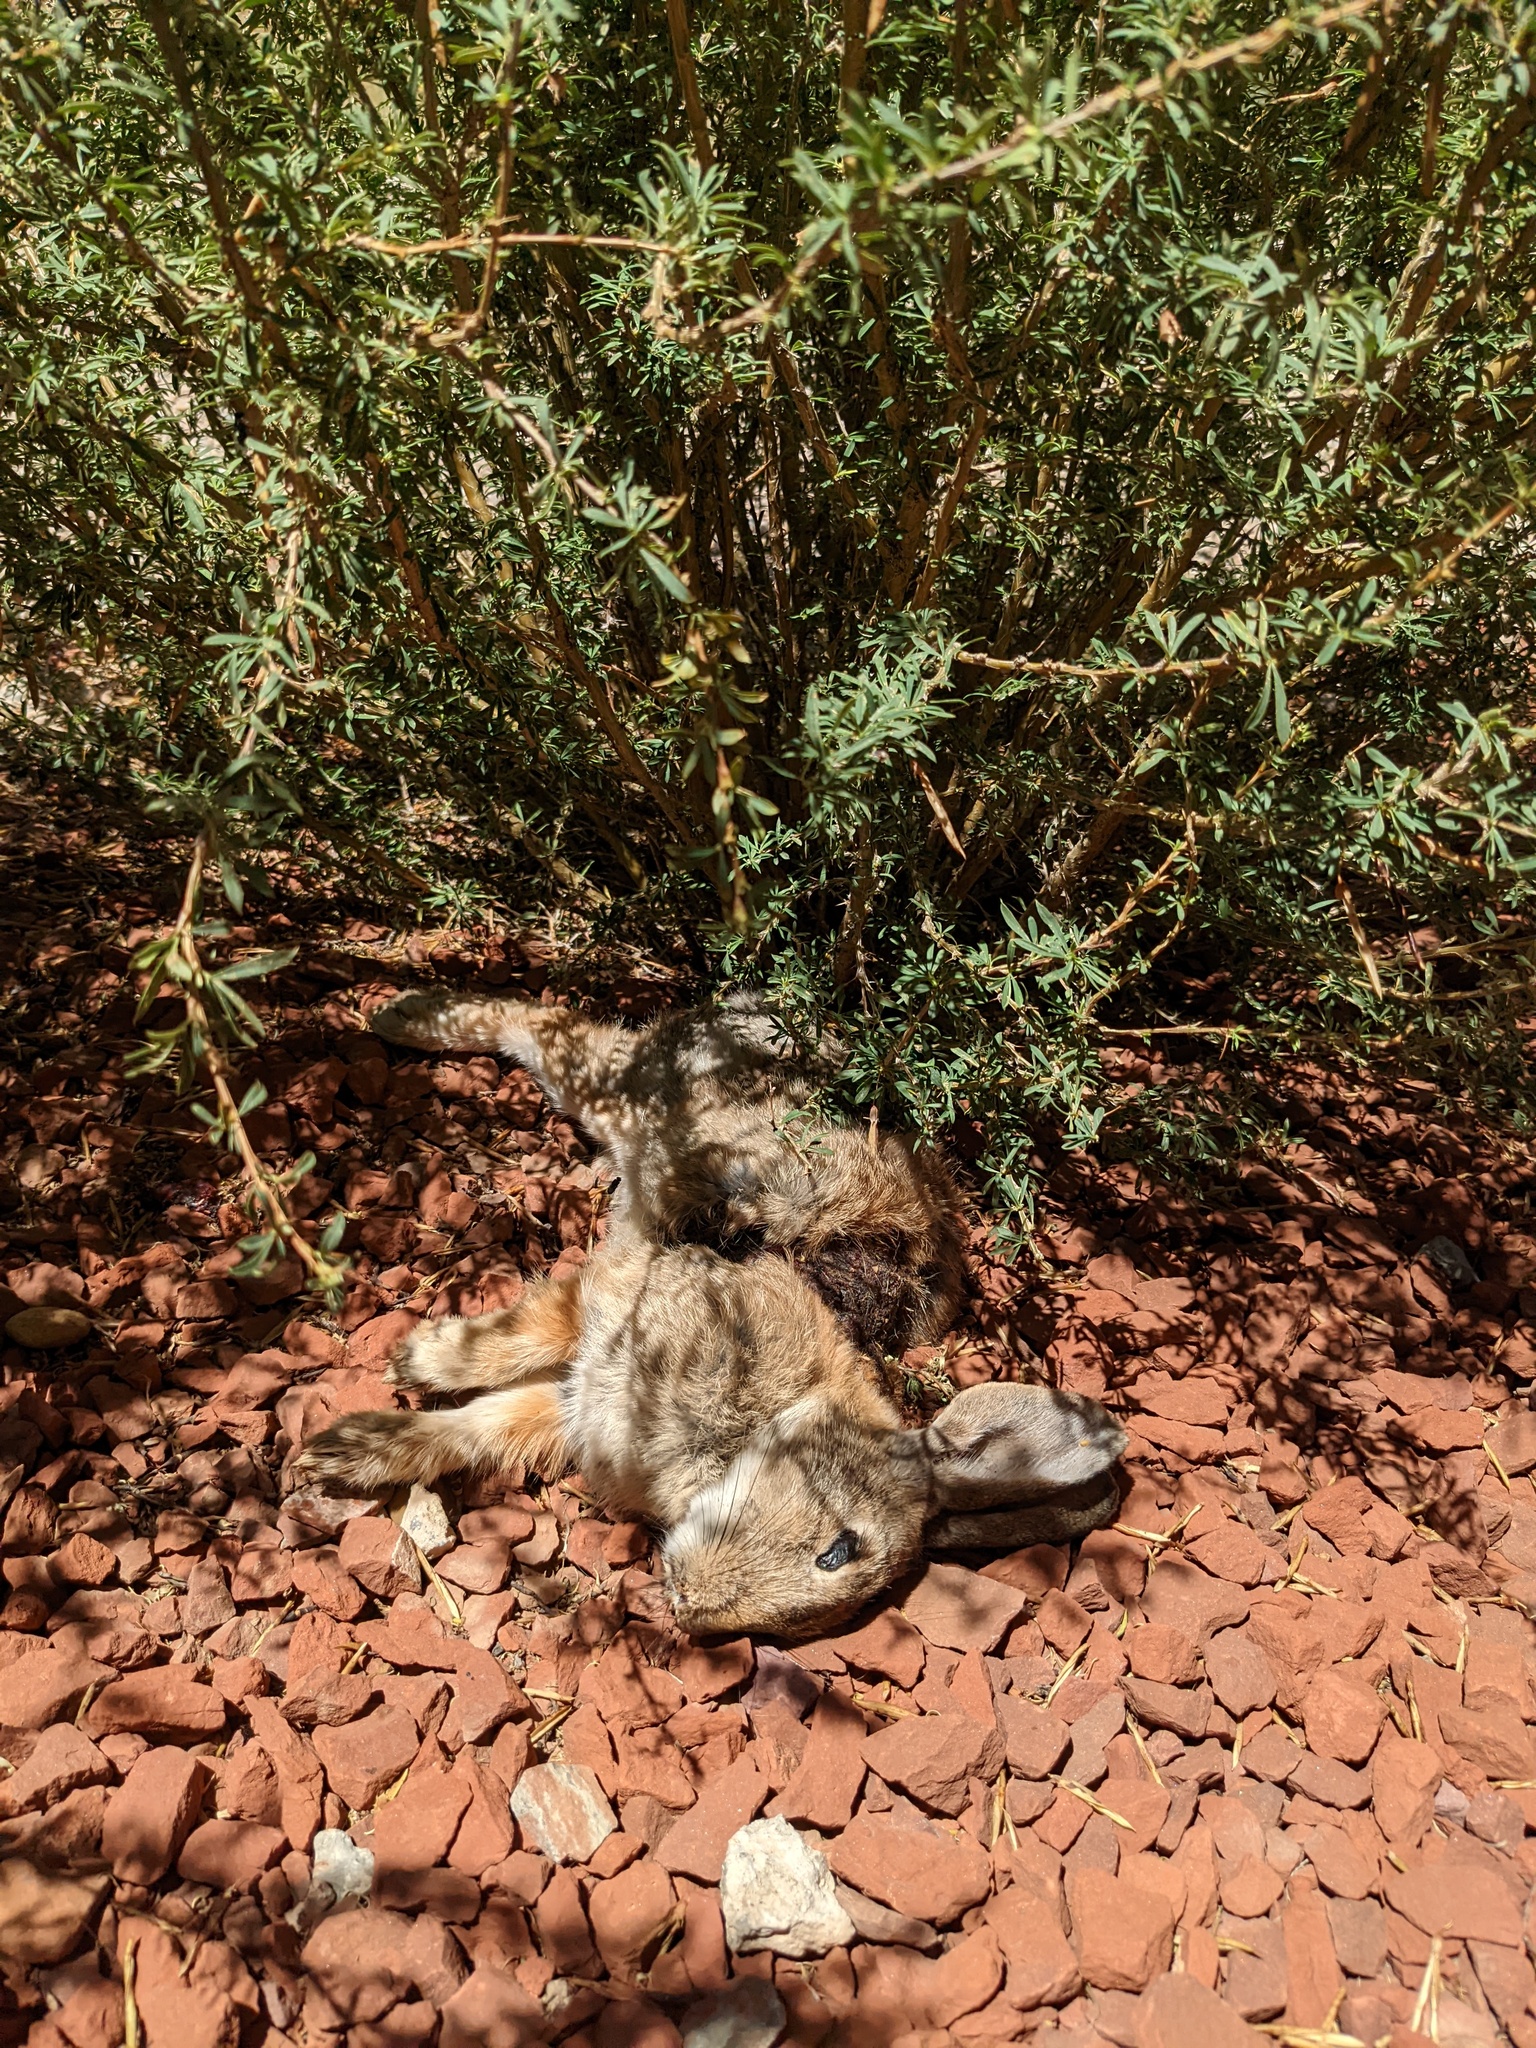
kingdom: Animalia
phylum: Chordata
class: Mammalia
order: Lagomorpha
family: Leporidae
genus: Sylvilagus
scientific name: Sylvilagus audubonii
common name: Desert cottontail
